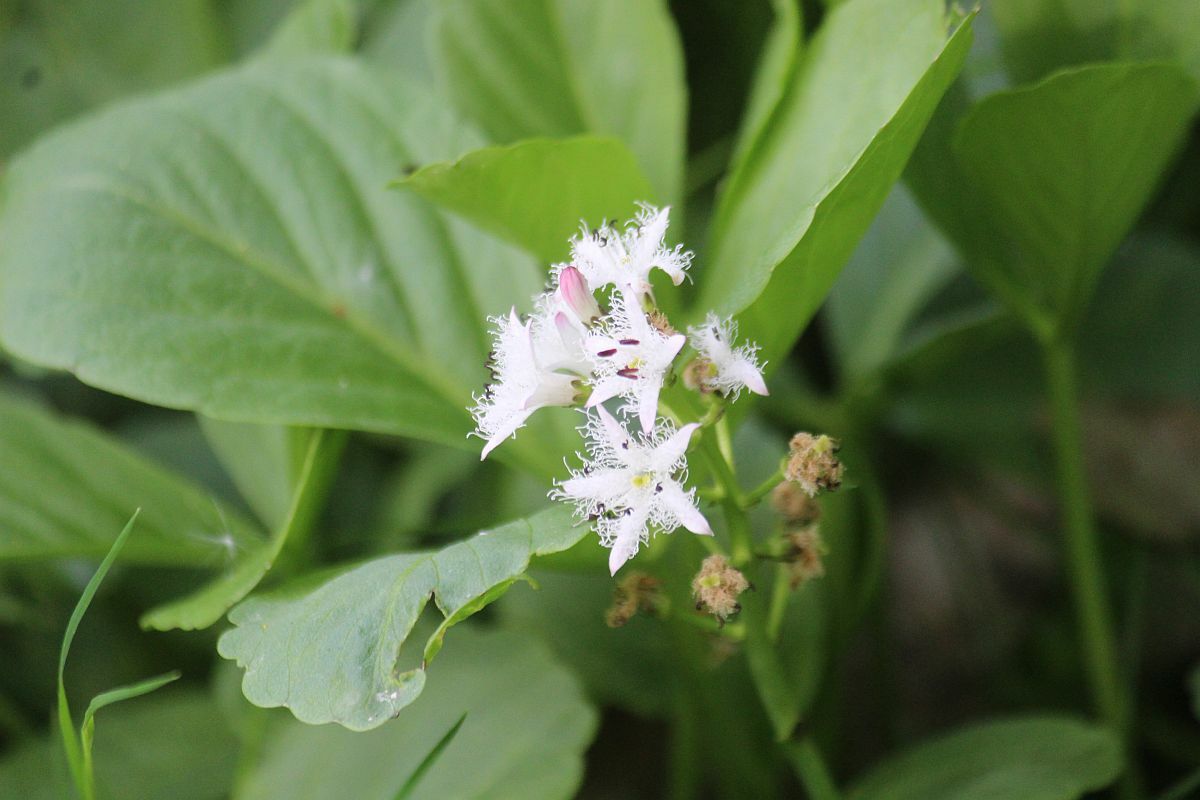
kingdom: Plantae
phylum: Tracheophyta
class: Magnoliopsida
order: Asterales
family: Menyanthaceae
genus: Menyanthes
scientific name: Menyanthes trifoliata
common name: Bogbean
